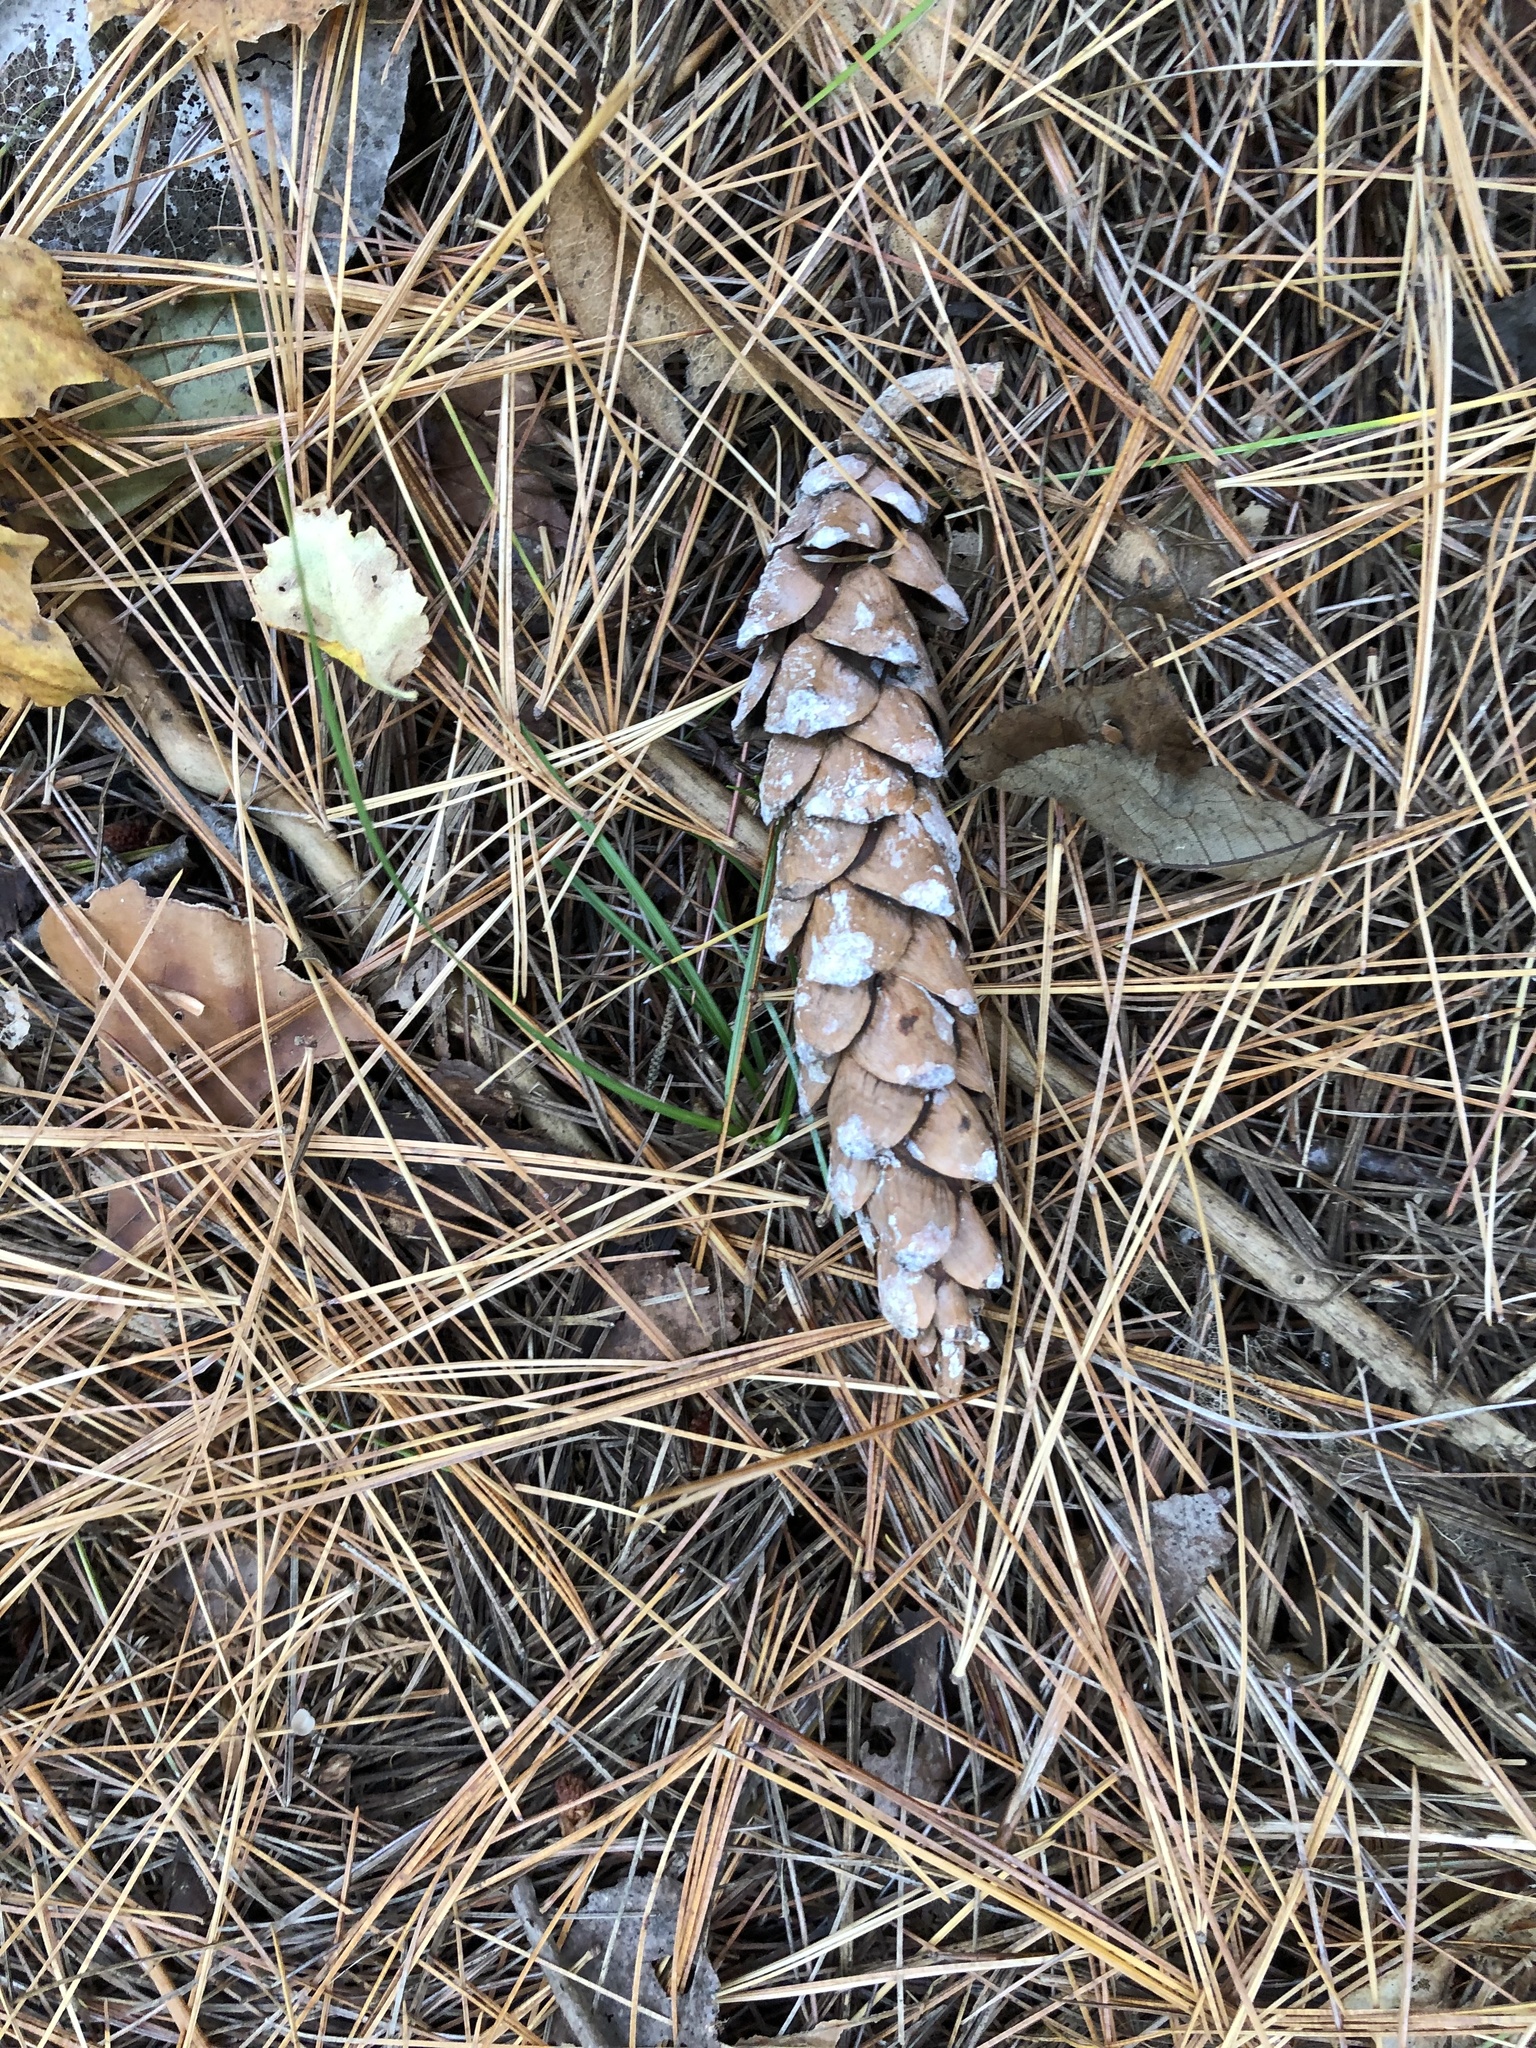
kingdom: Plantae
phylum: Tracheophyta
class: Pinopsida
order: Pinales
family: Pinaceae
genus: Pinus
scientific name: Pinus strobus
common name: Weymouth pine
